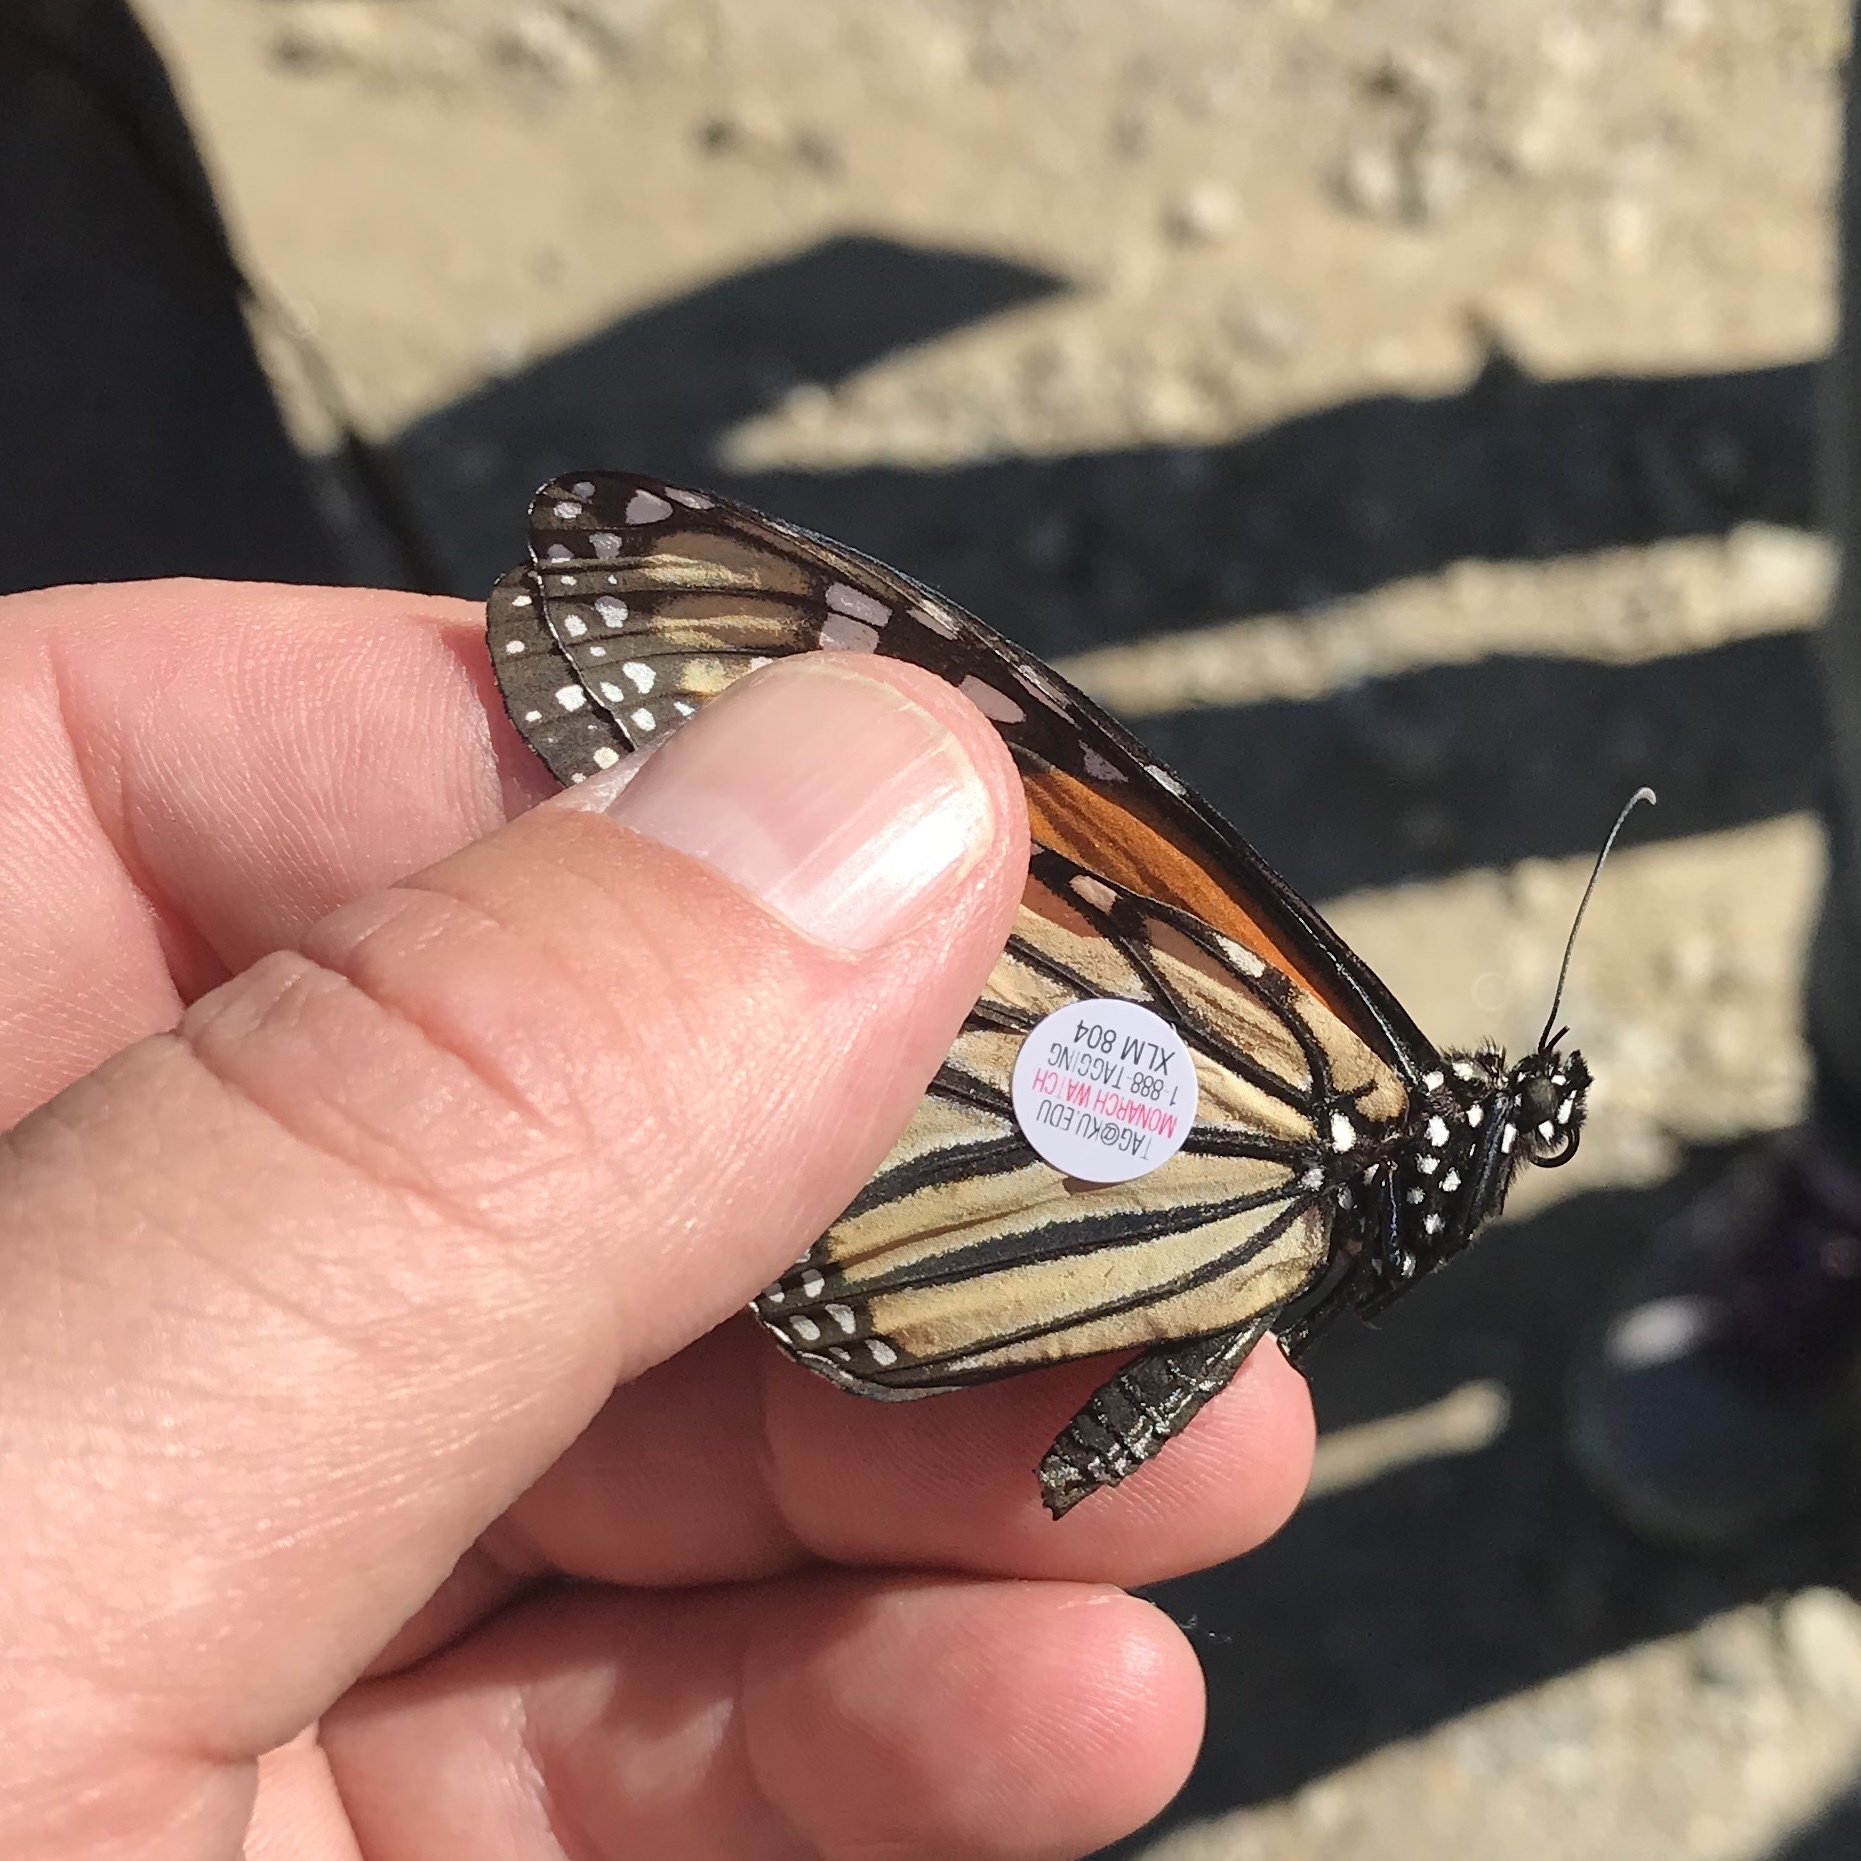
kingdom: Animalia
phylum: Arthropoda
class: Insecta
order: Lepidoptera
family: Nymphalidae
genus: Danaus
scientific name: Danaus plexippus
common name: Monarch
